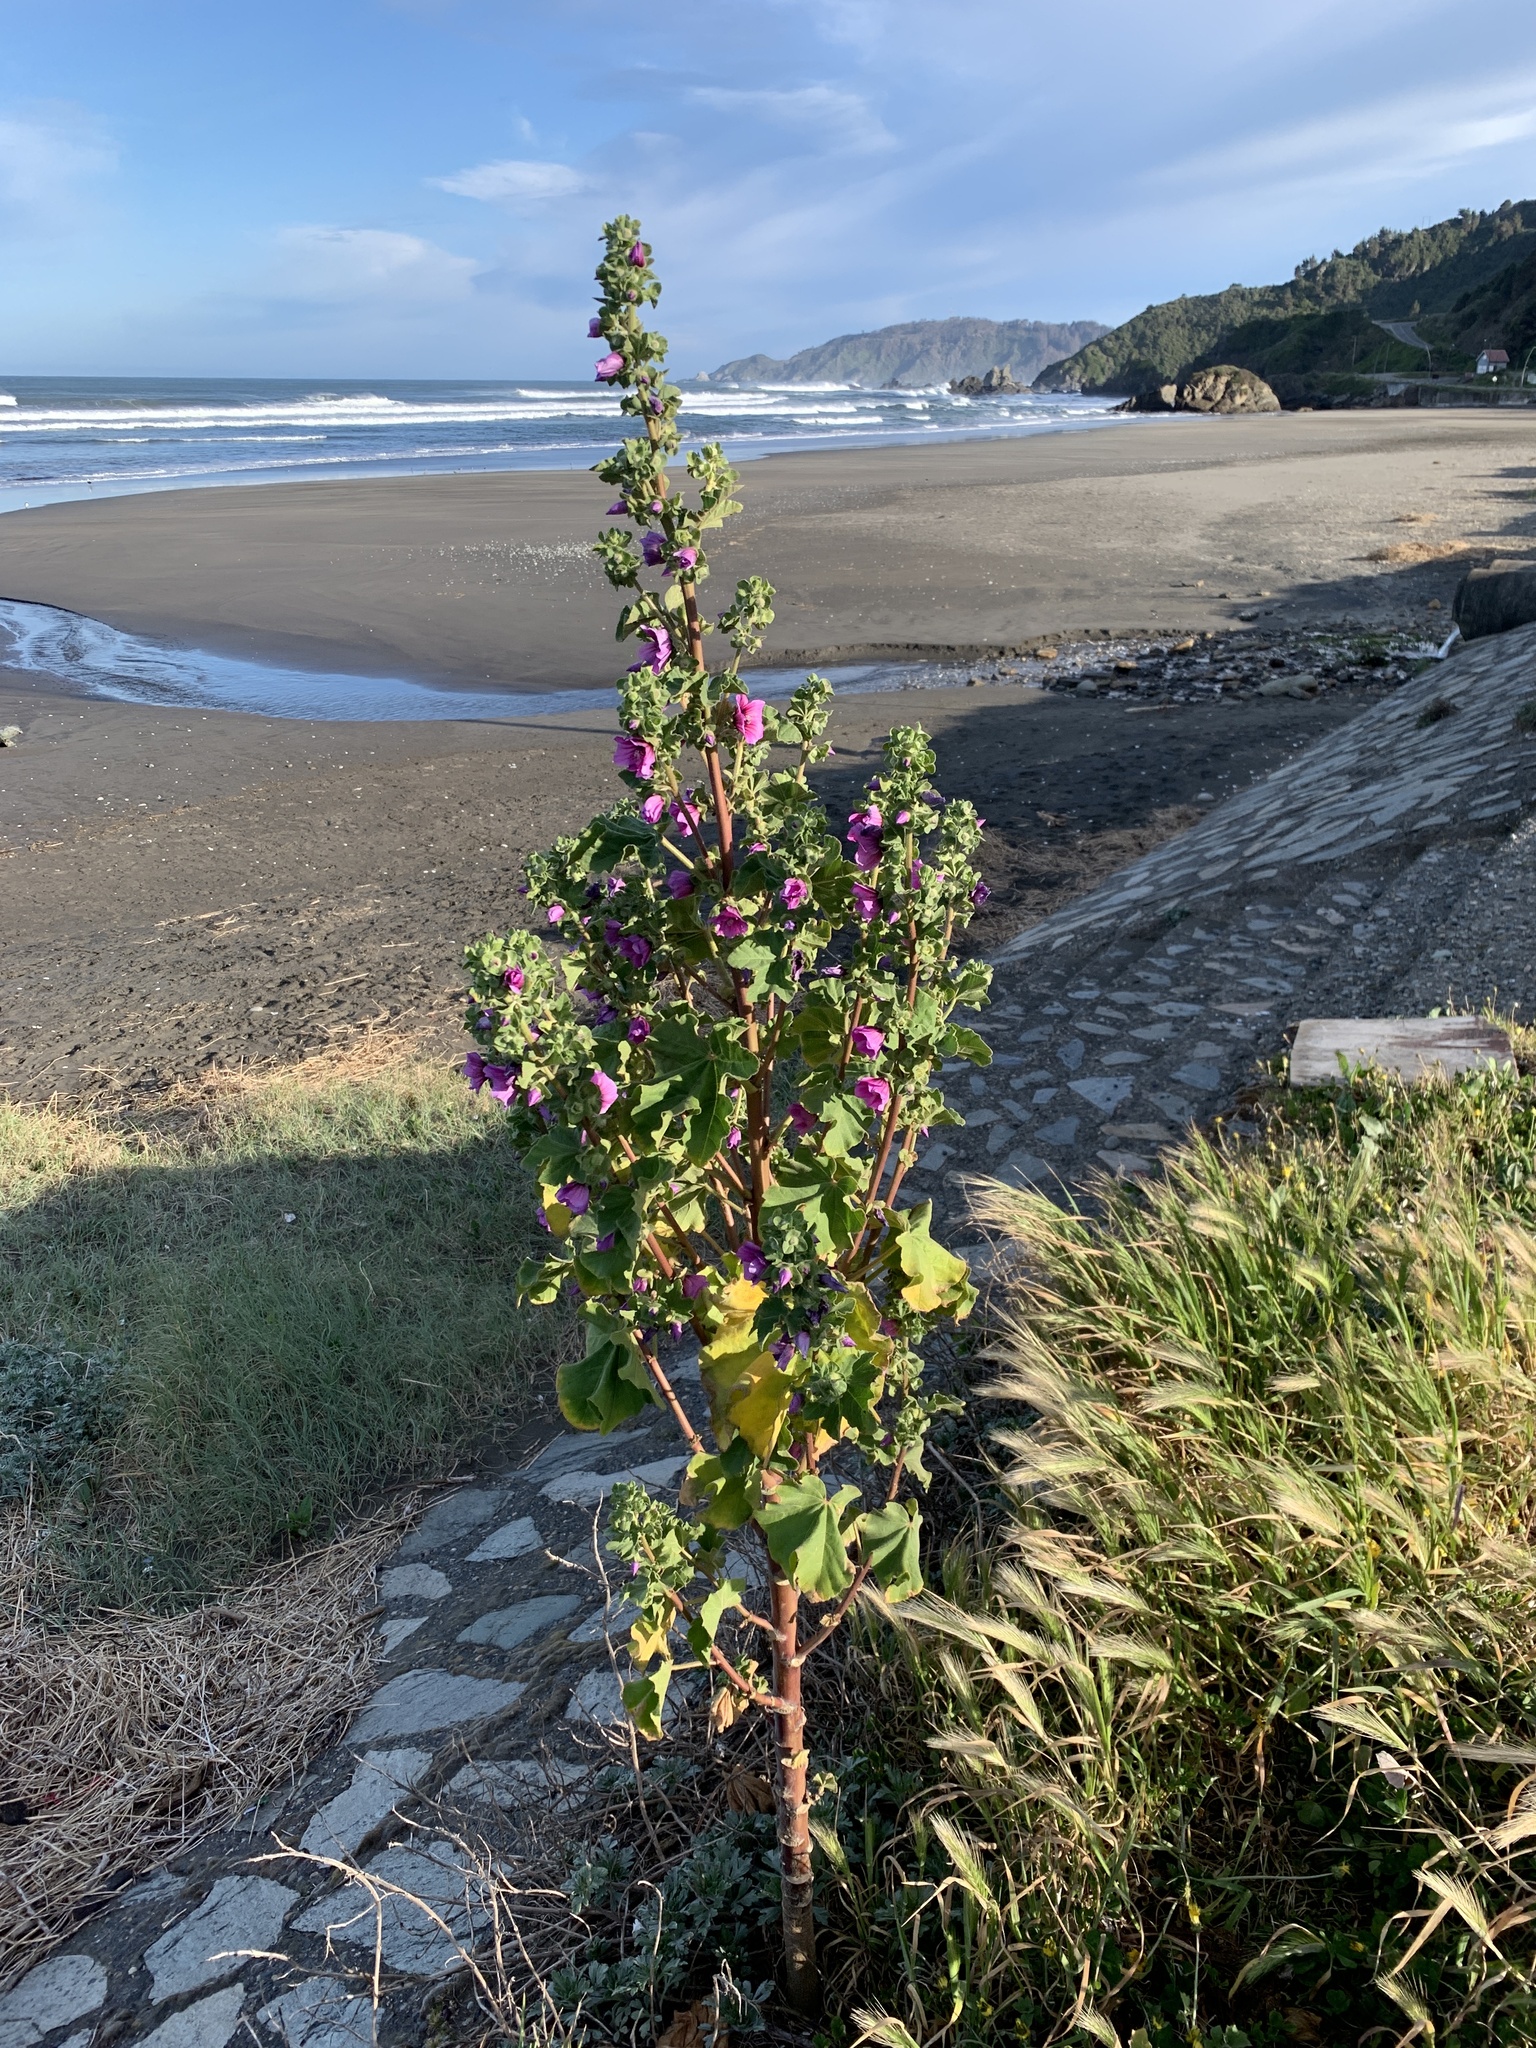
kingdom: Plantae
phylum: Tracheophyta
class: Magnoliopsida
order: Malvales
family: Malvaceae
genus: Malva
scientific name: Malva arborea
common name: Tree mallow
